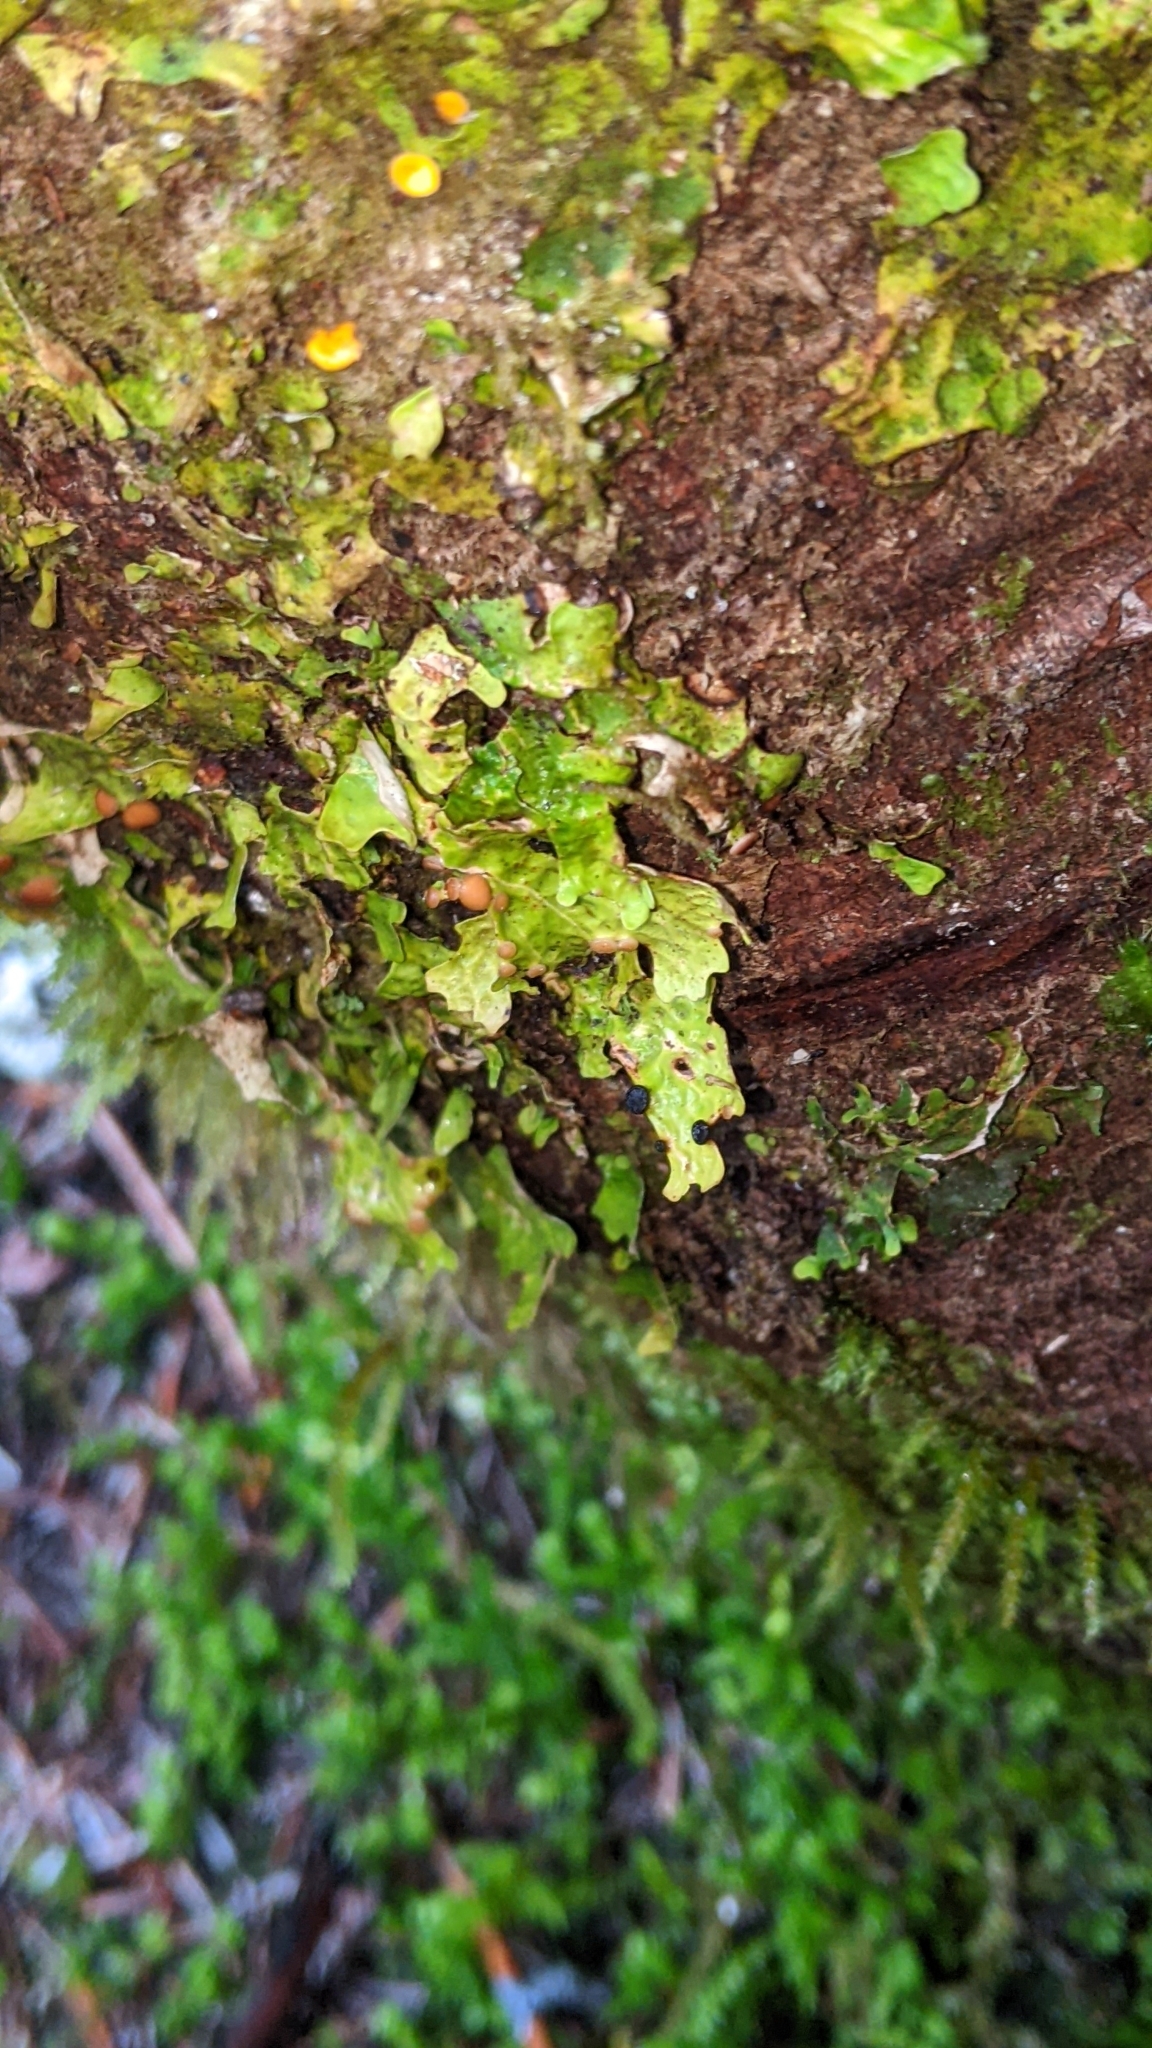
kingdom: Fungi
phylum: Ascomycota
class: Lecanoromycetes
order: Peltigerales
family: Lobariaceae
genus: Lobaria
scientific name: Lobaria linita
